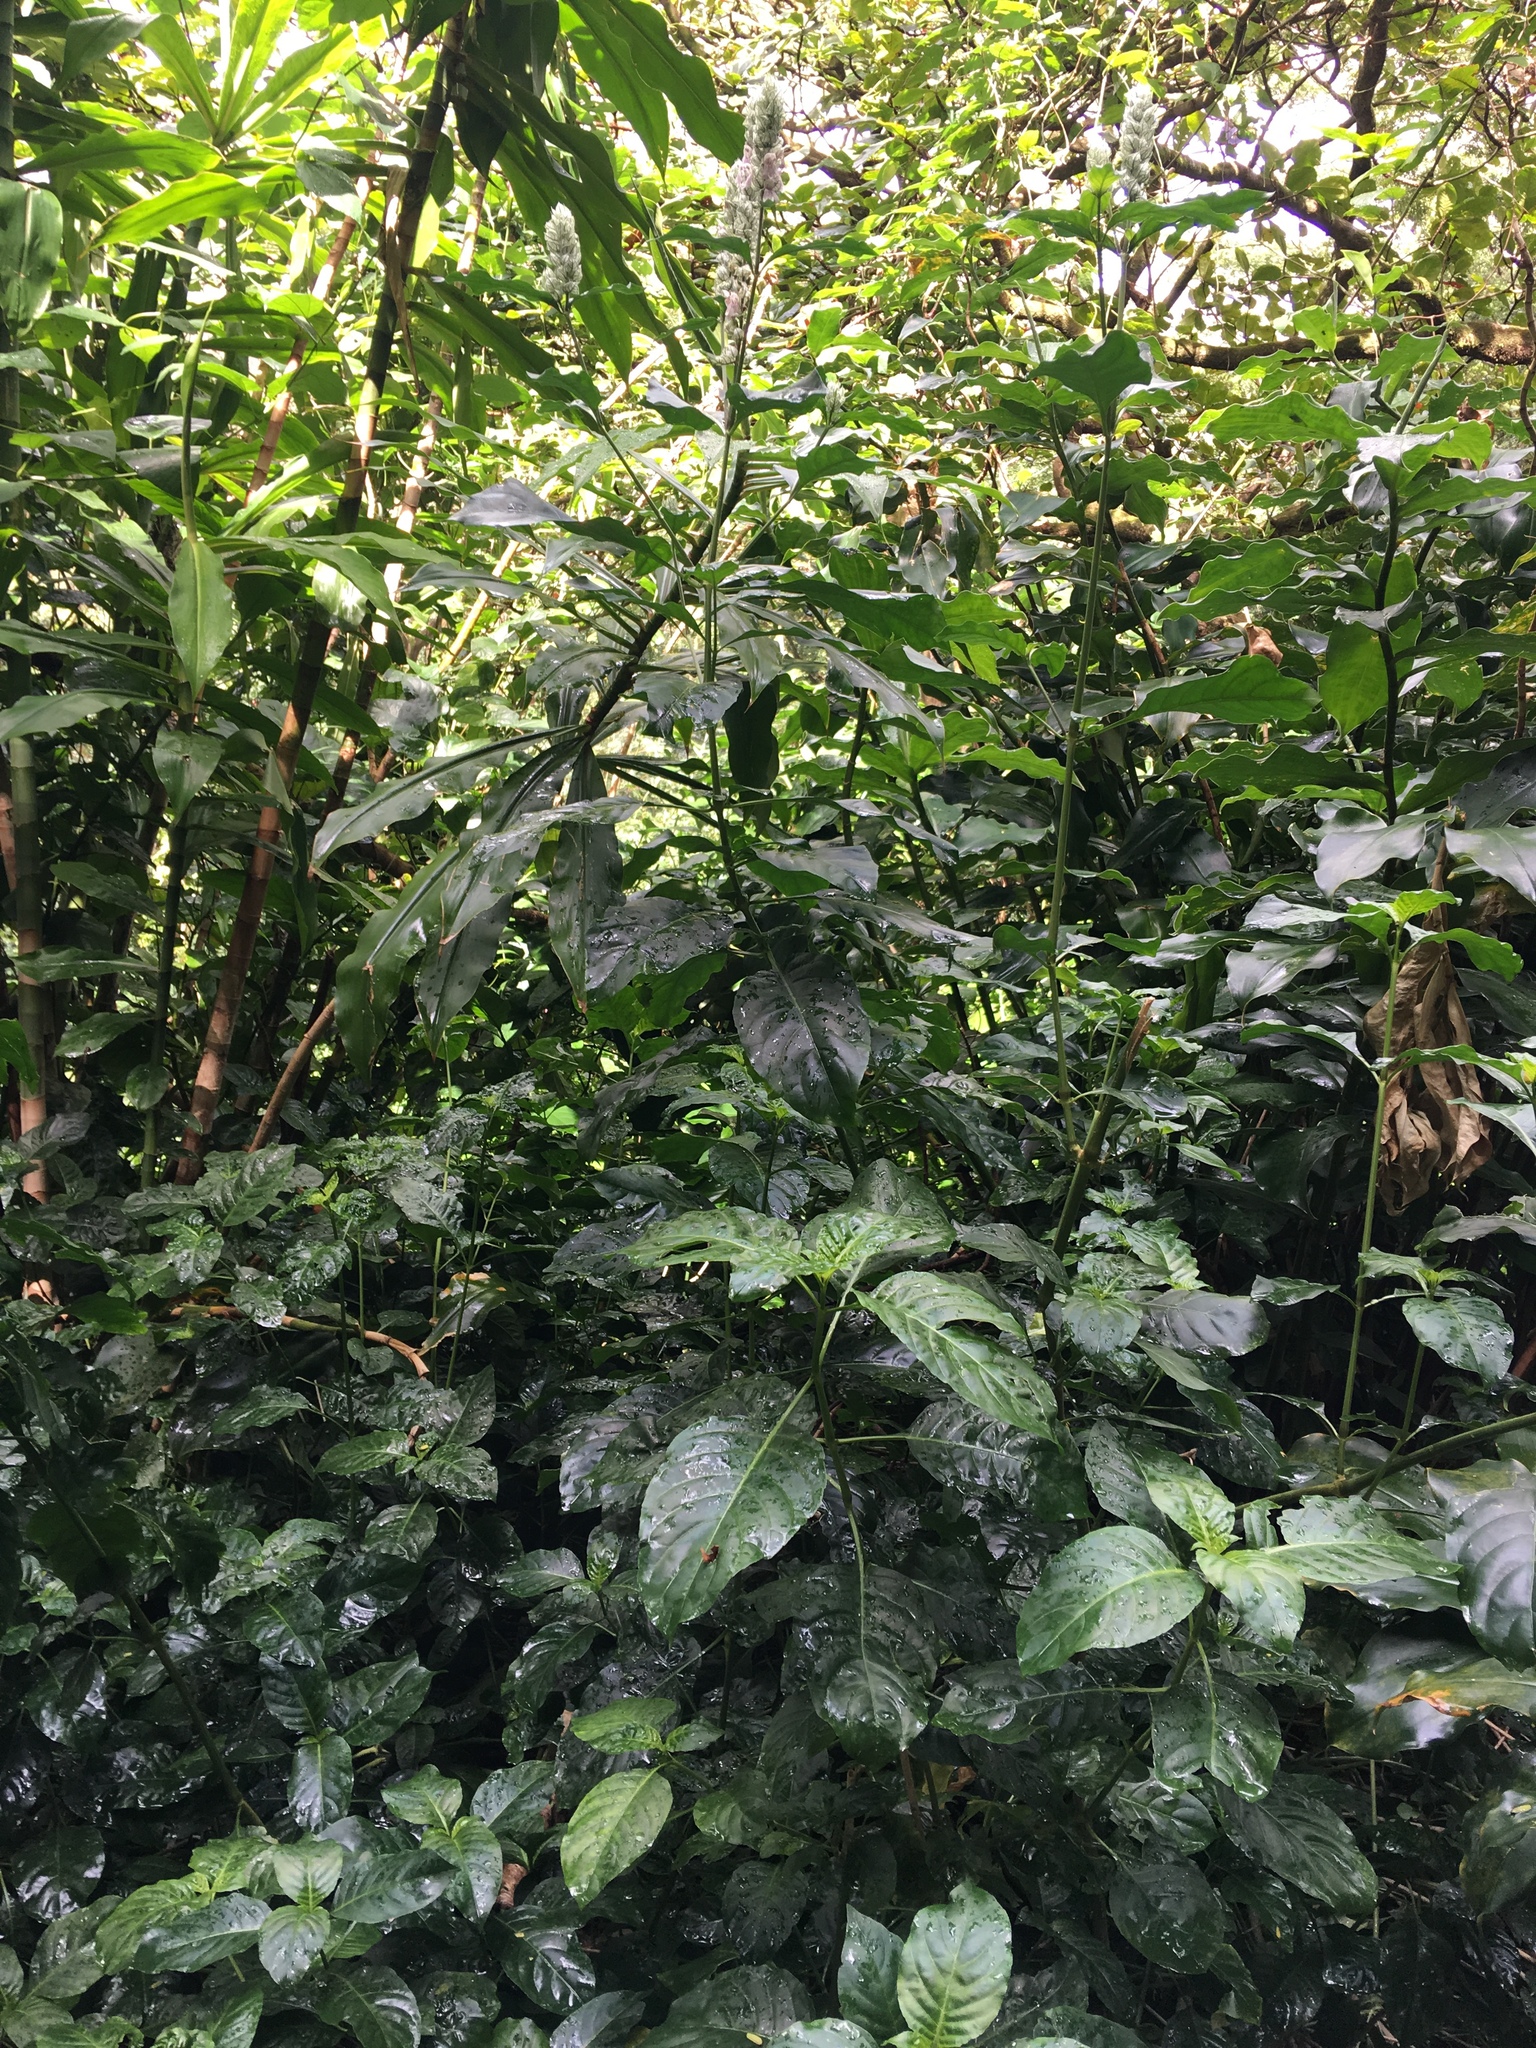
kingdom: Plantae
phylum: Tracheophyta
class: Magnoliopsida
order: Lamiales
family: Acanthaceae
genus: Justicia
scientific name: Justicia betonica
